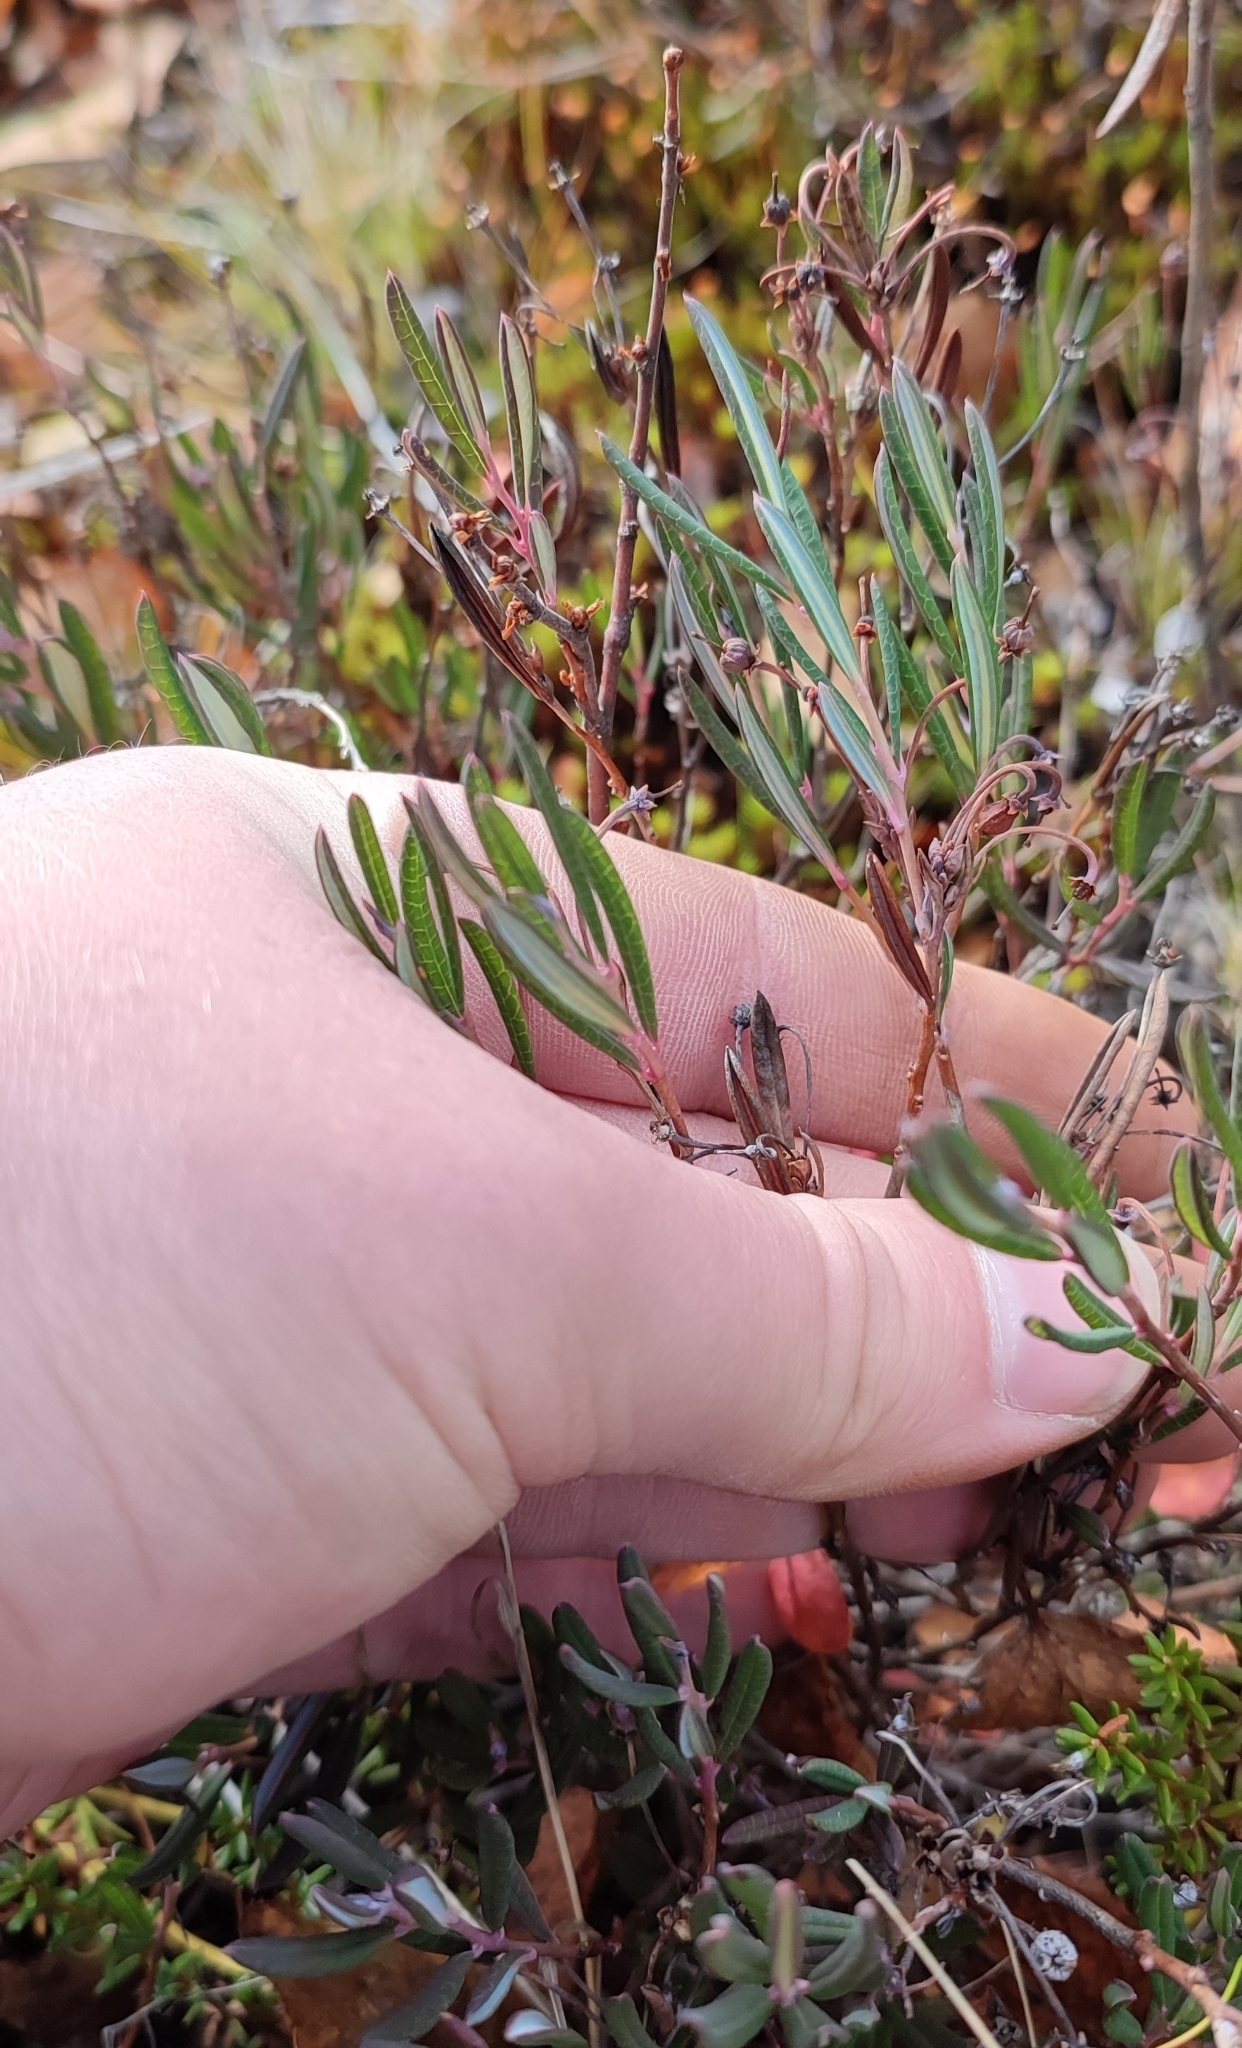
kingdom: Plantae
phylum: Tracheophyta
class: Magnoliopsida
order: Ericales
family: Ericaceae
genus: Andromeda
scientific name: Andromeda polifolia
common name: Bog-rosemary
